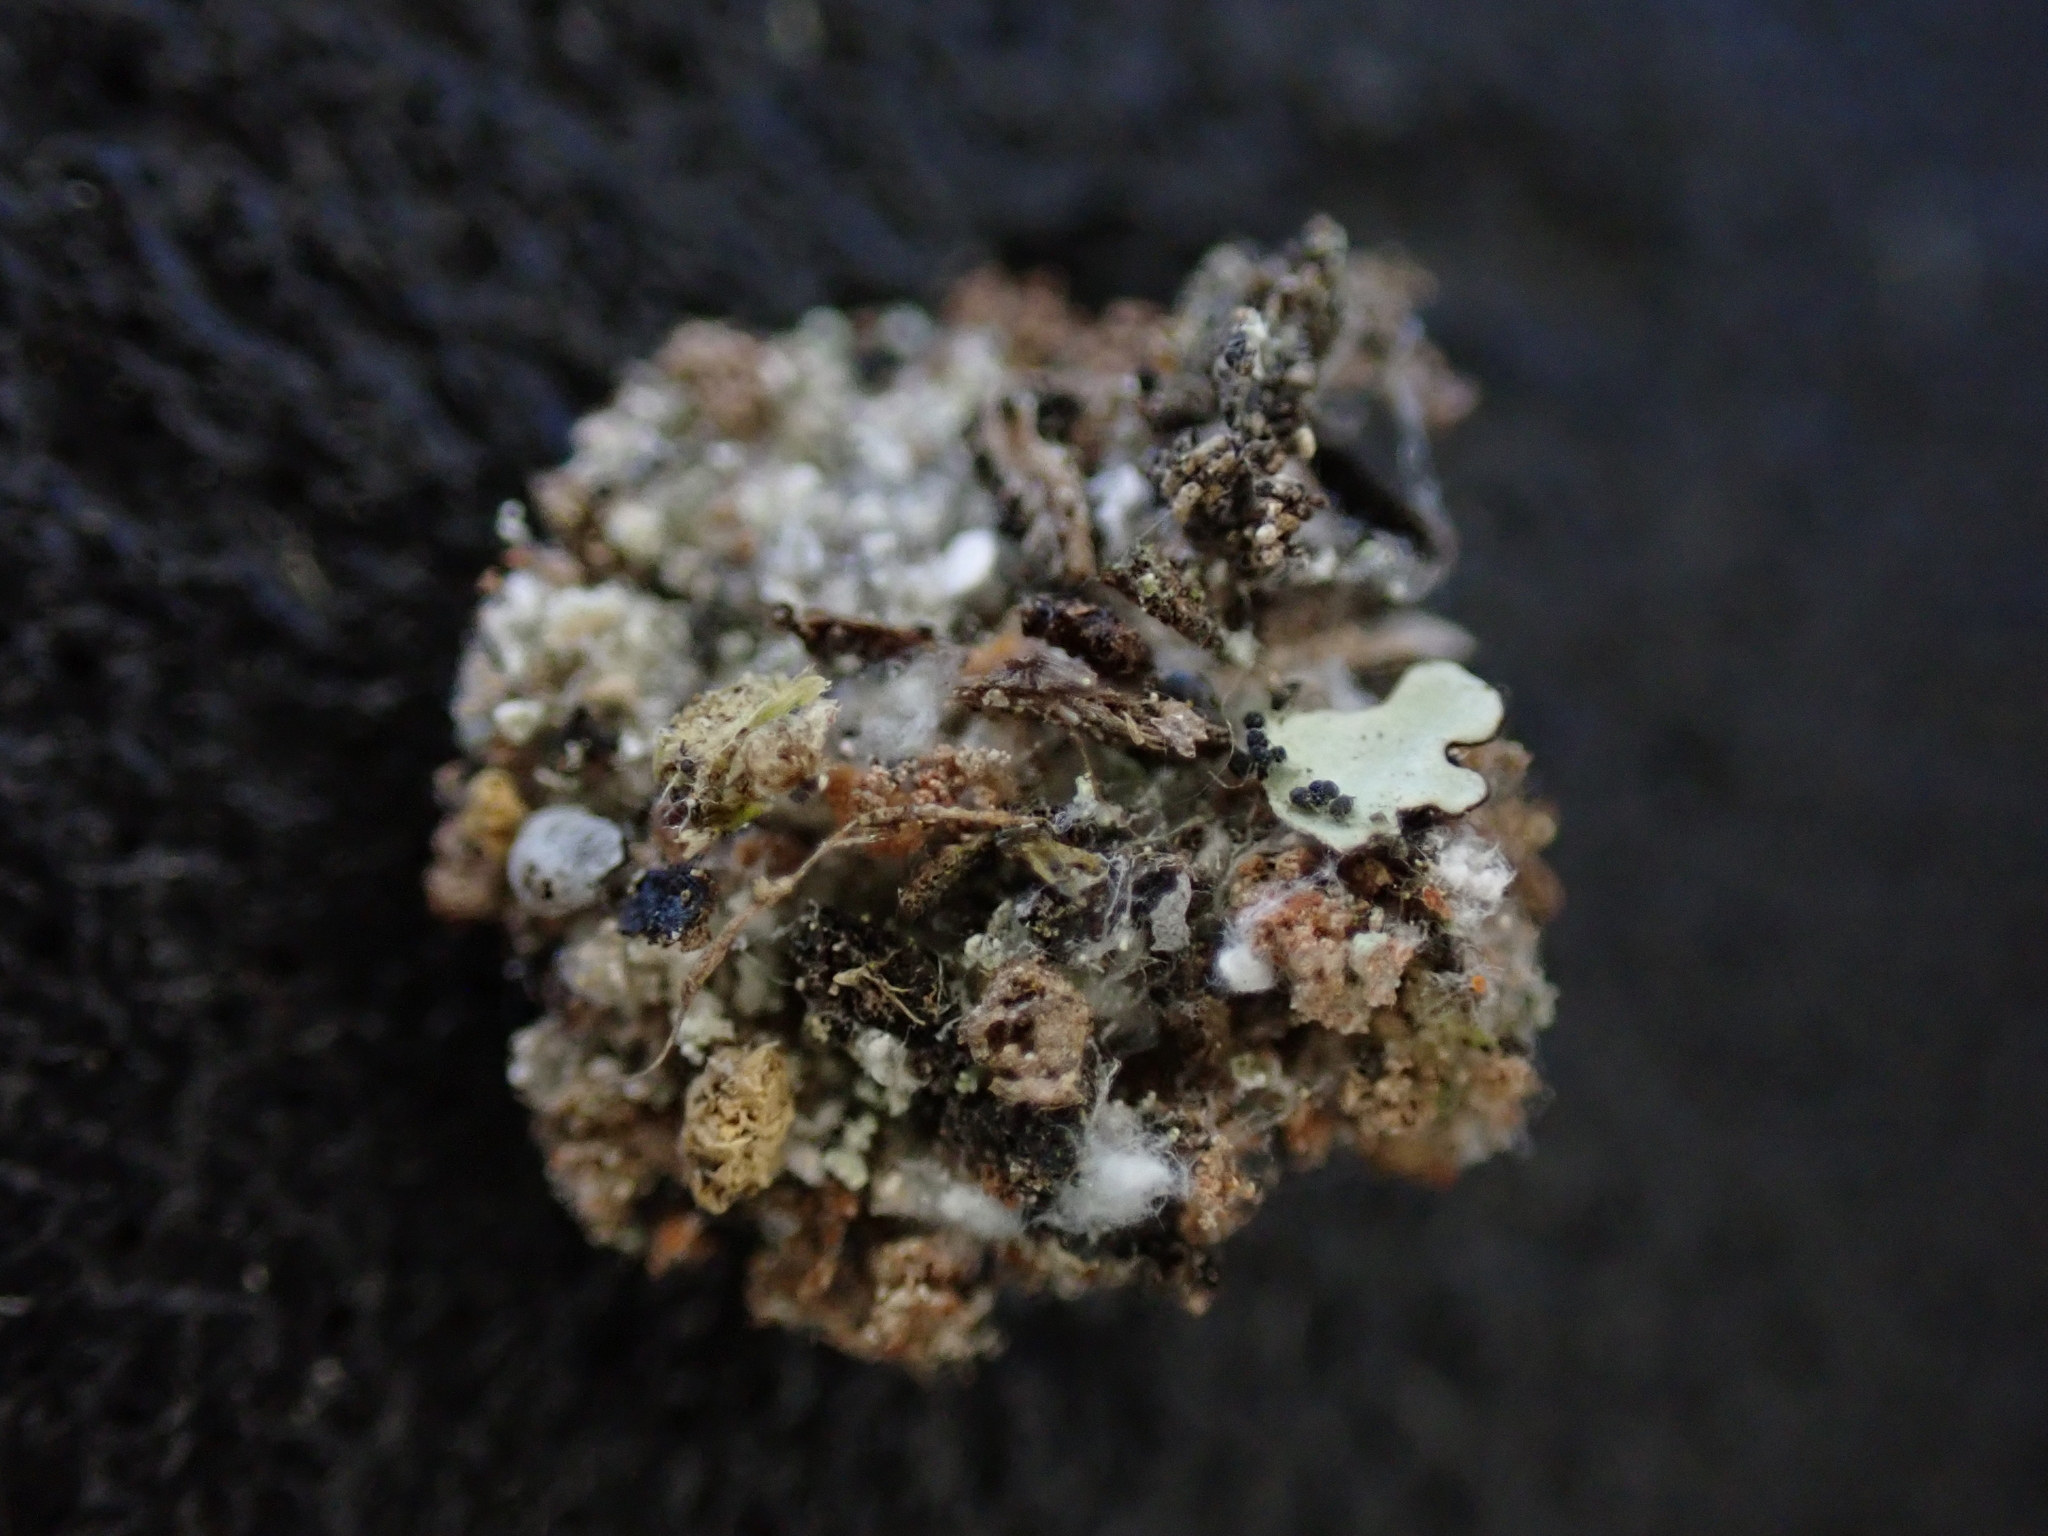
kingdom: Animalia
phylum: Arthropoda
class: Insecta
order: Neuroptera
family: Chrysopidae
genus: Leucochrysa
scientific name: Leucochrysa pavida
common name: Lichen-carrying green lacewing
